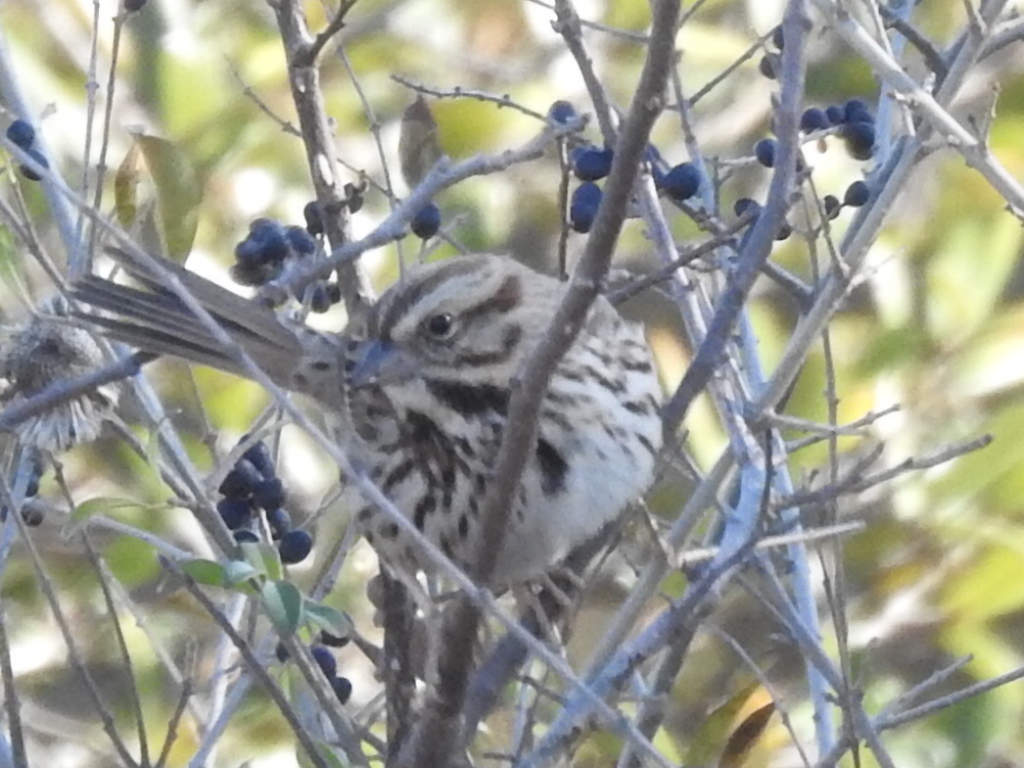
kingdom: Animalia
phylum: Chordata
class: Aves
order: Passeriformes
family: Passerellidae
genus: Melospiza
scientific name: Melospiza melodia
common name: Song sparrow
